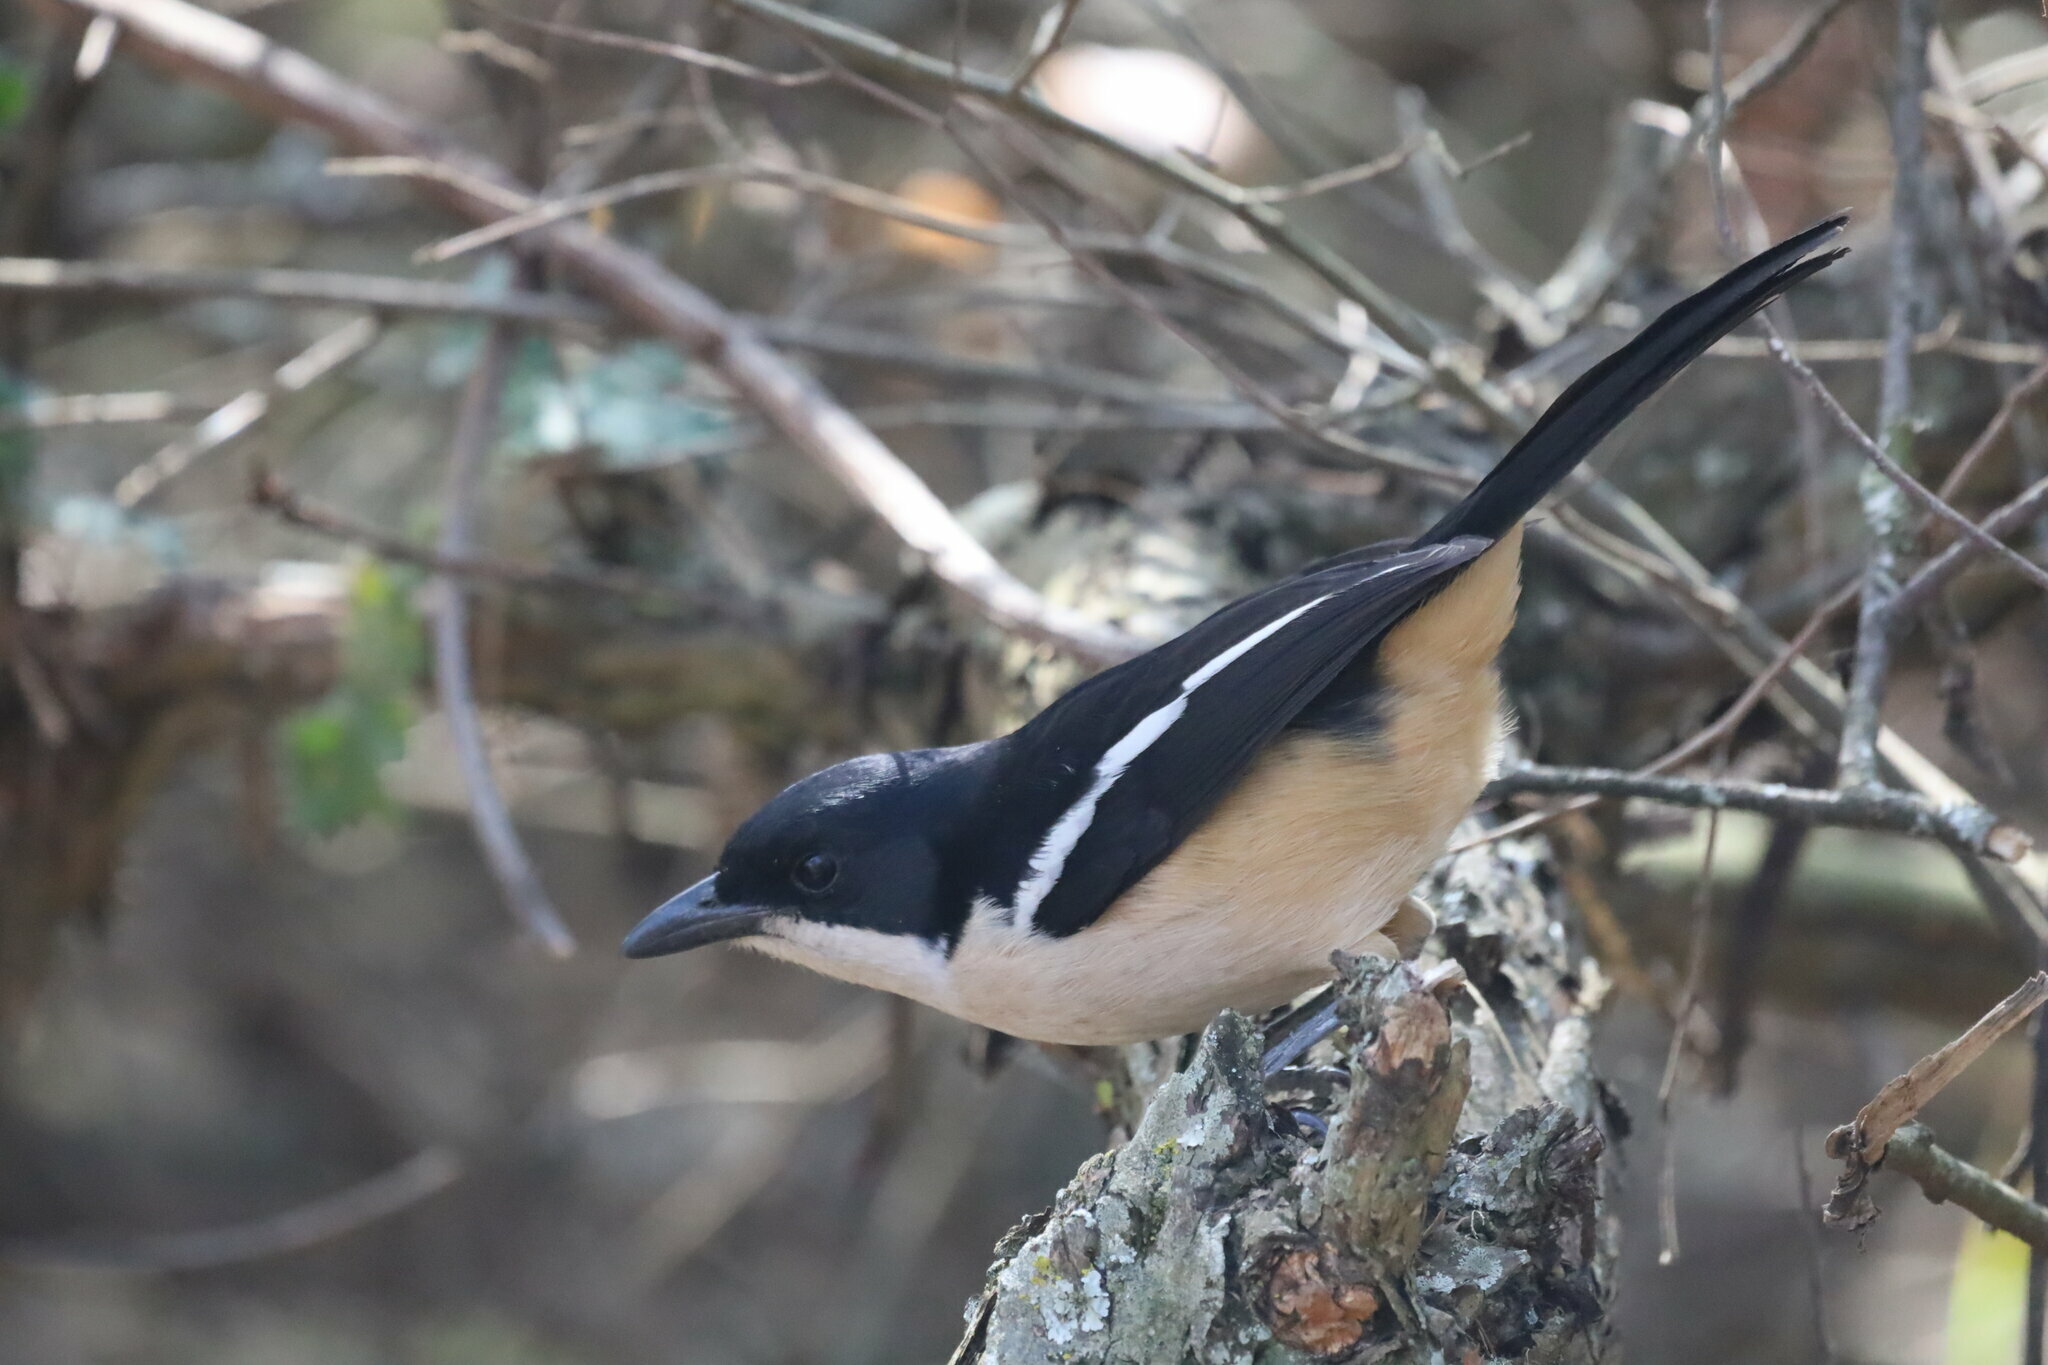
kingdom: Animalia
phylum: Chordata
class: Aves
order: Passeriformes
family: Malaconotidae
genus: Laniarius
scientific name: Laniarius ferrugineus
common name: Southern boubou
